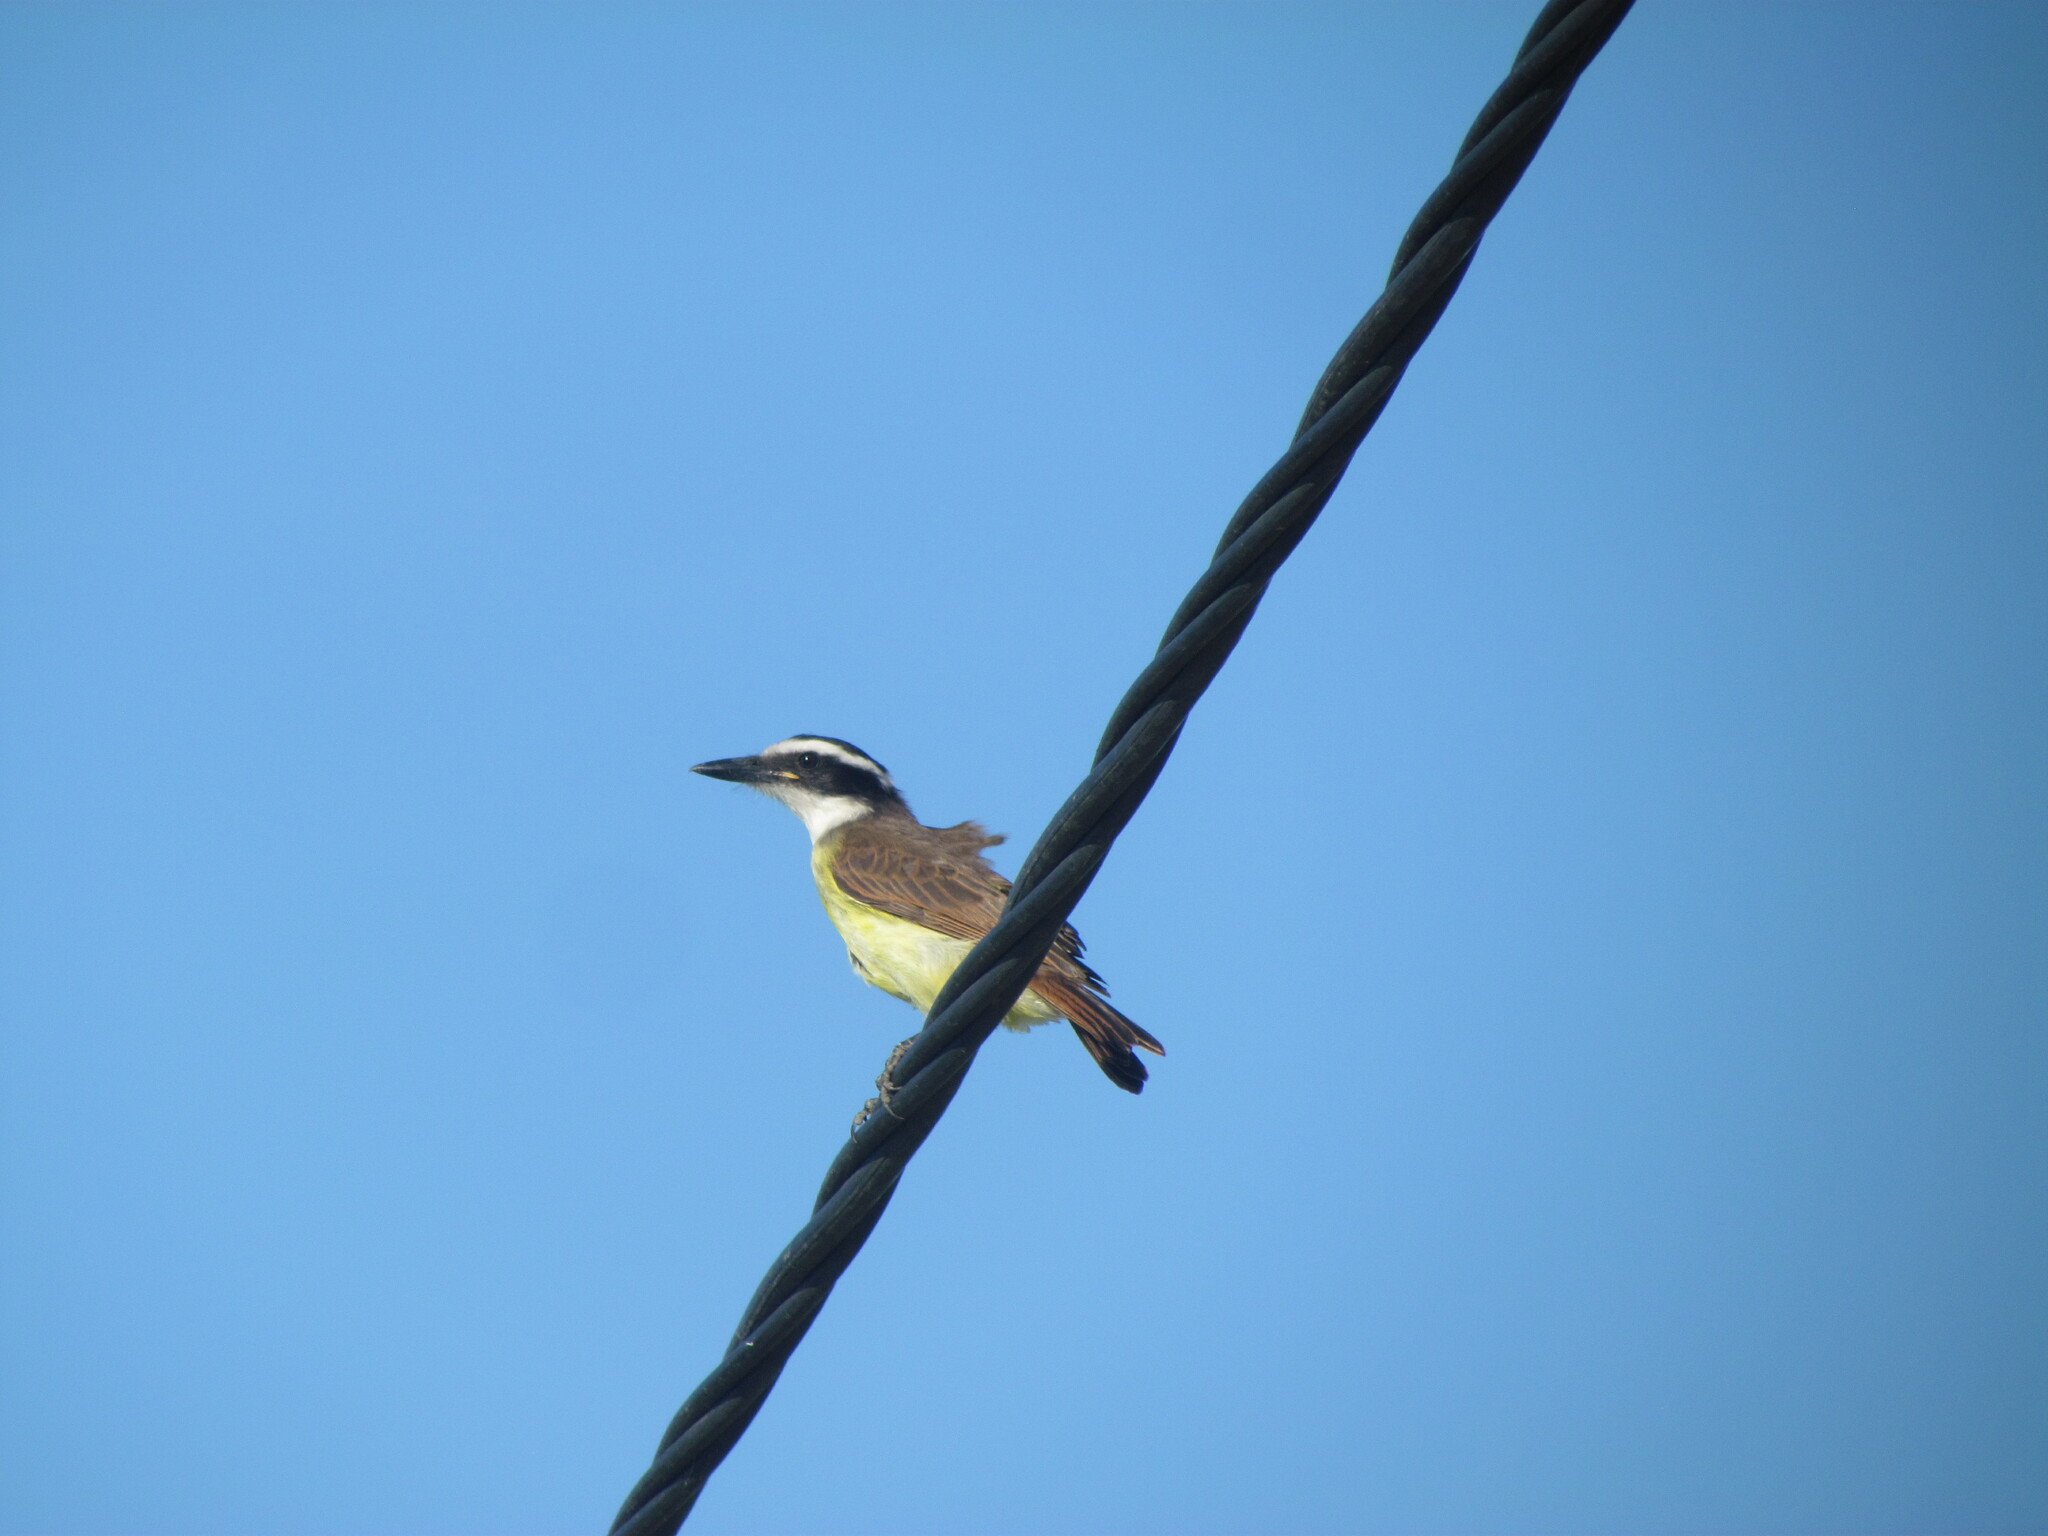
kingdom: Animalia
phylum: Chordata
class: Aves
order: Passeriformes
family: Tyrannidae
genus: Pitangus
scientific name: Pitangus sulphuratus
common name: Great kiskadee
